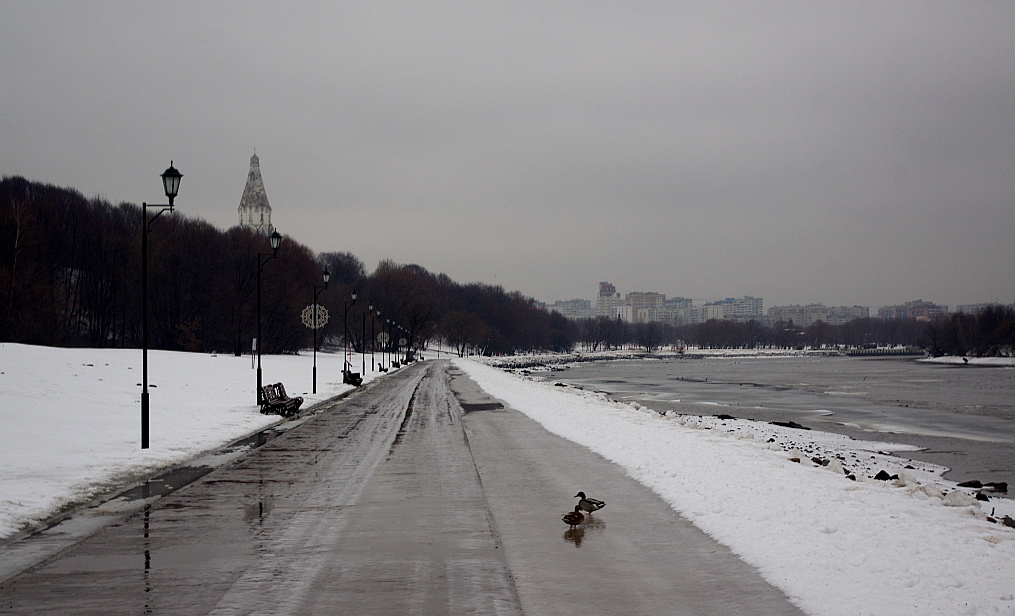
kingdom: Animalia
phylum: Chordata
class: Aves
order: Anseriformes
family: Anatidae
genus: Anas
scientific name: Anas platyrhynchos
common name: Mallard
